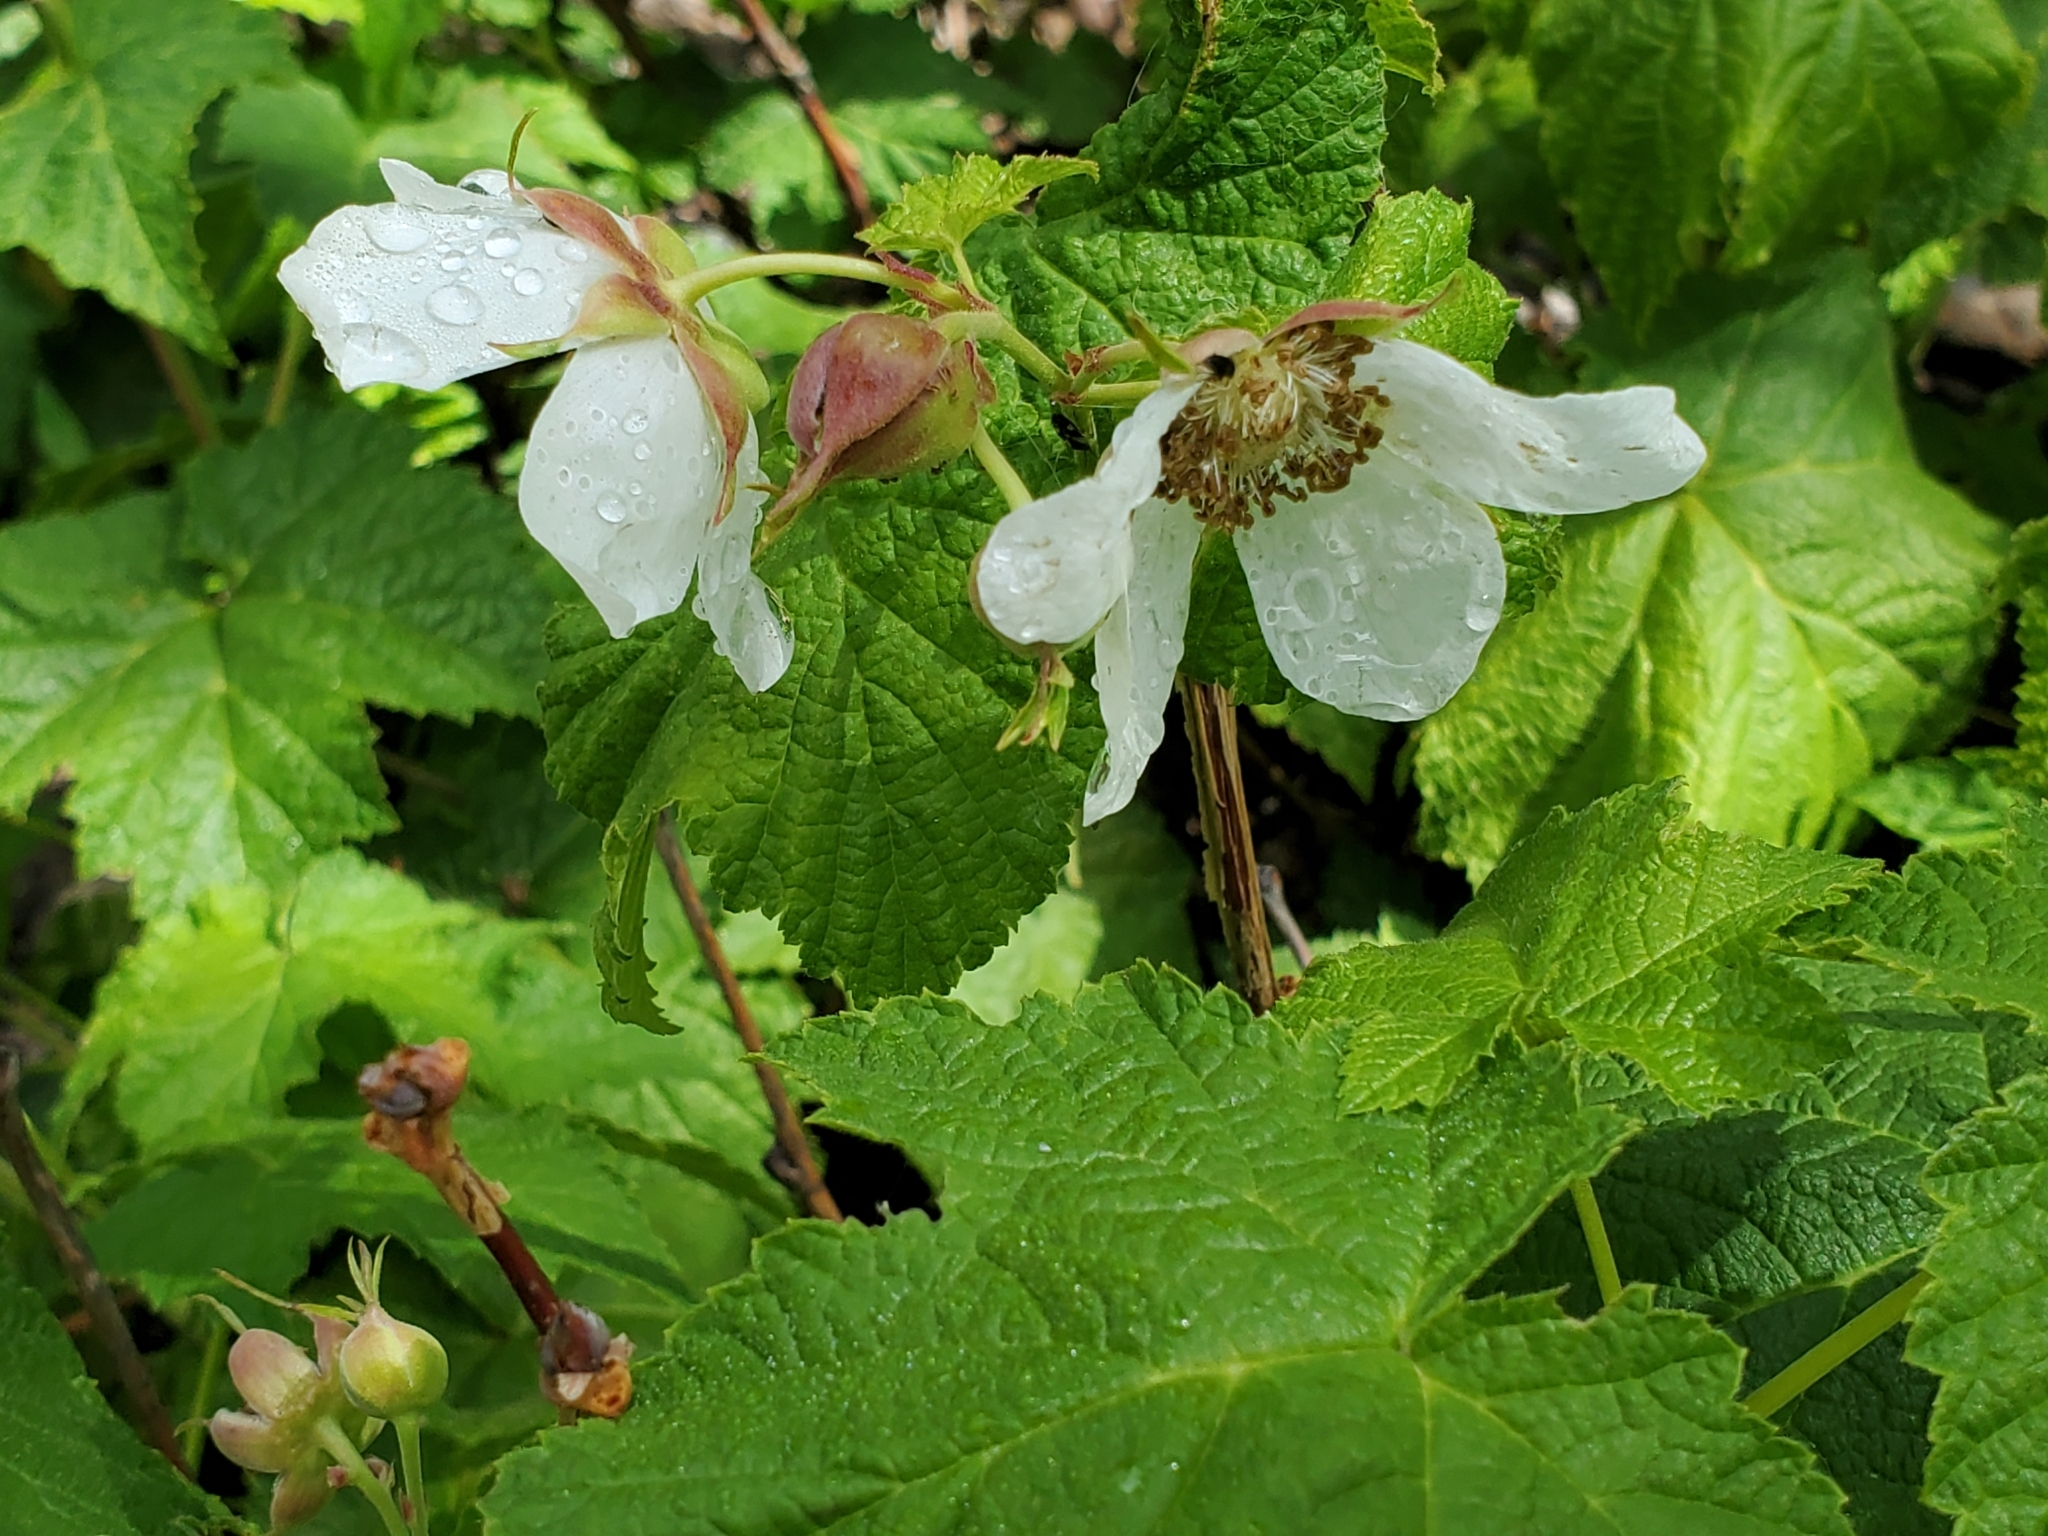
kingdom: Plantae
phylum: Tracheophyta
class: Magnoliopsida
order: Rosales
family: Rosaceae
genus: Rubus
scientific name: Rubus parviflorus
